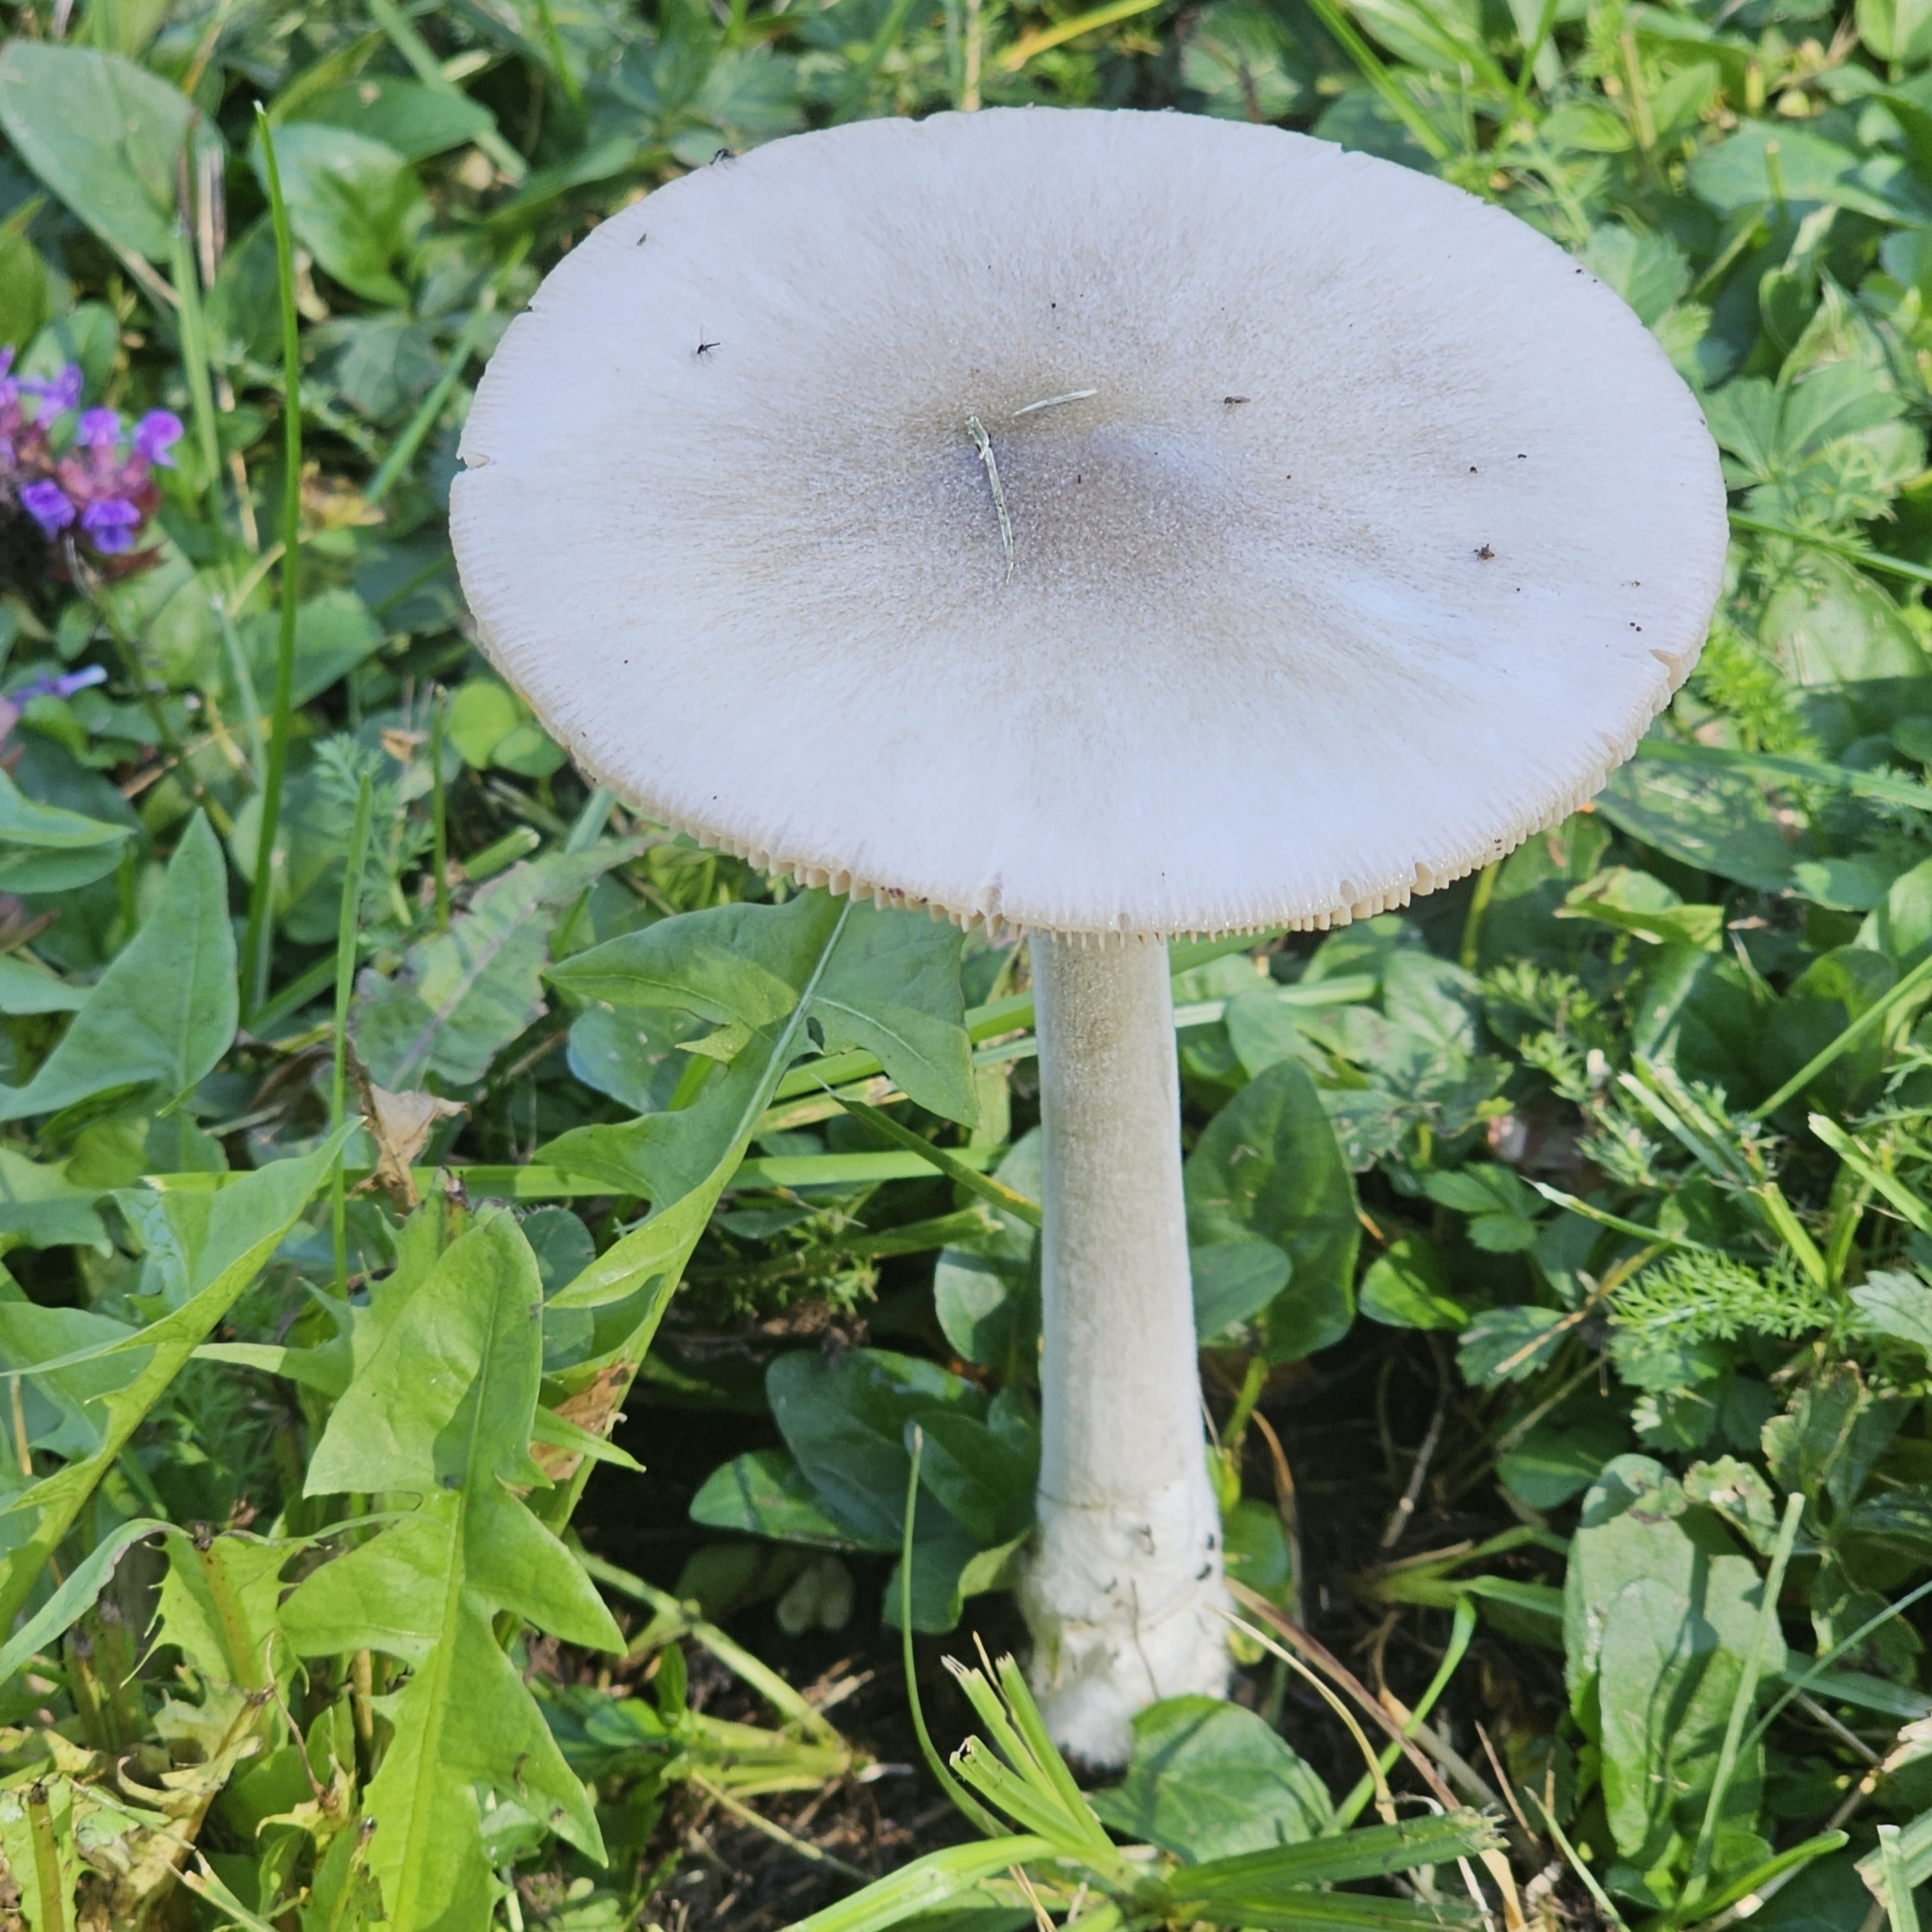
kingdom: Fungi
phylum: Basidiomycota
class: Agaricomycetes
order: Agaricales
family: Pluteaceae
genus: Volvopluteus
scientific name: Volvopluteus gloiocephalus
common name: Stubble rosegill
